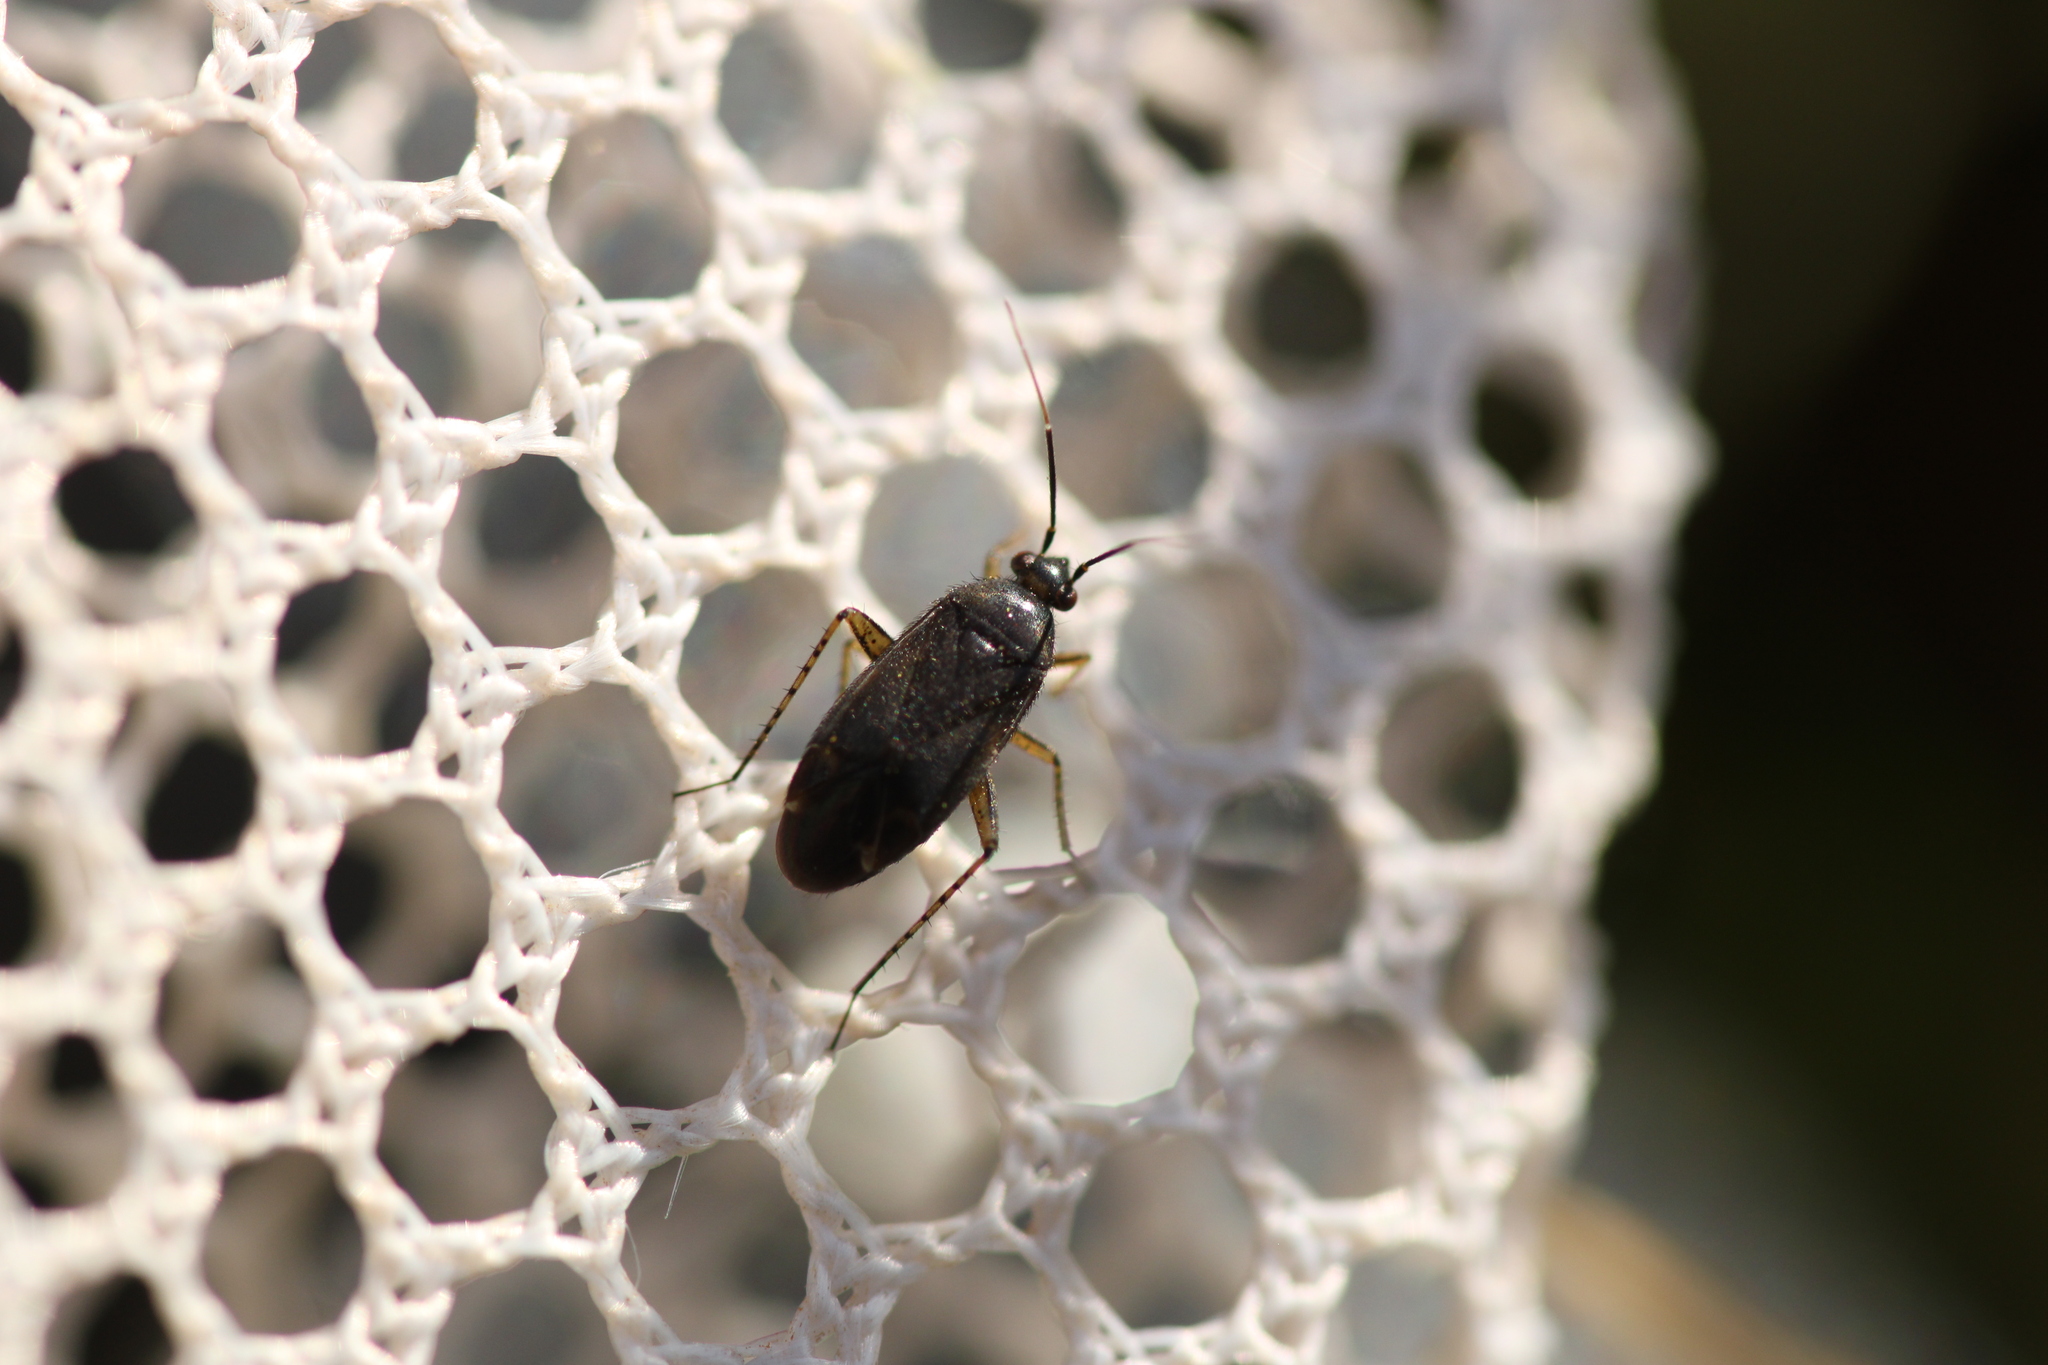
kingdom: Animalia
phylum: Arthropoda
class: Insecta
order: Hemiptera
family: Miridae
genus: Plagiognathus
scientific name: Plagiognathus arbustorum
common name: Plant bug
